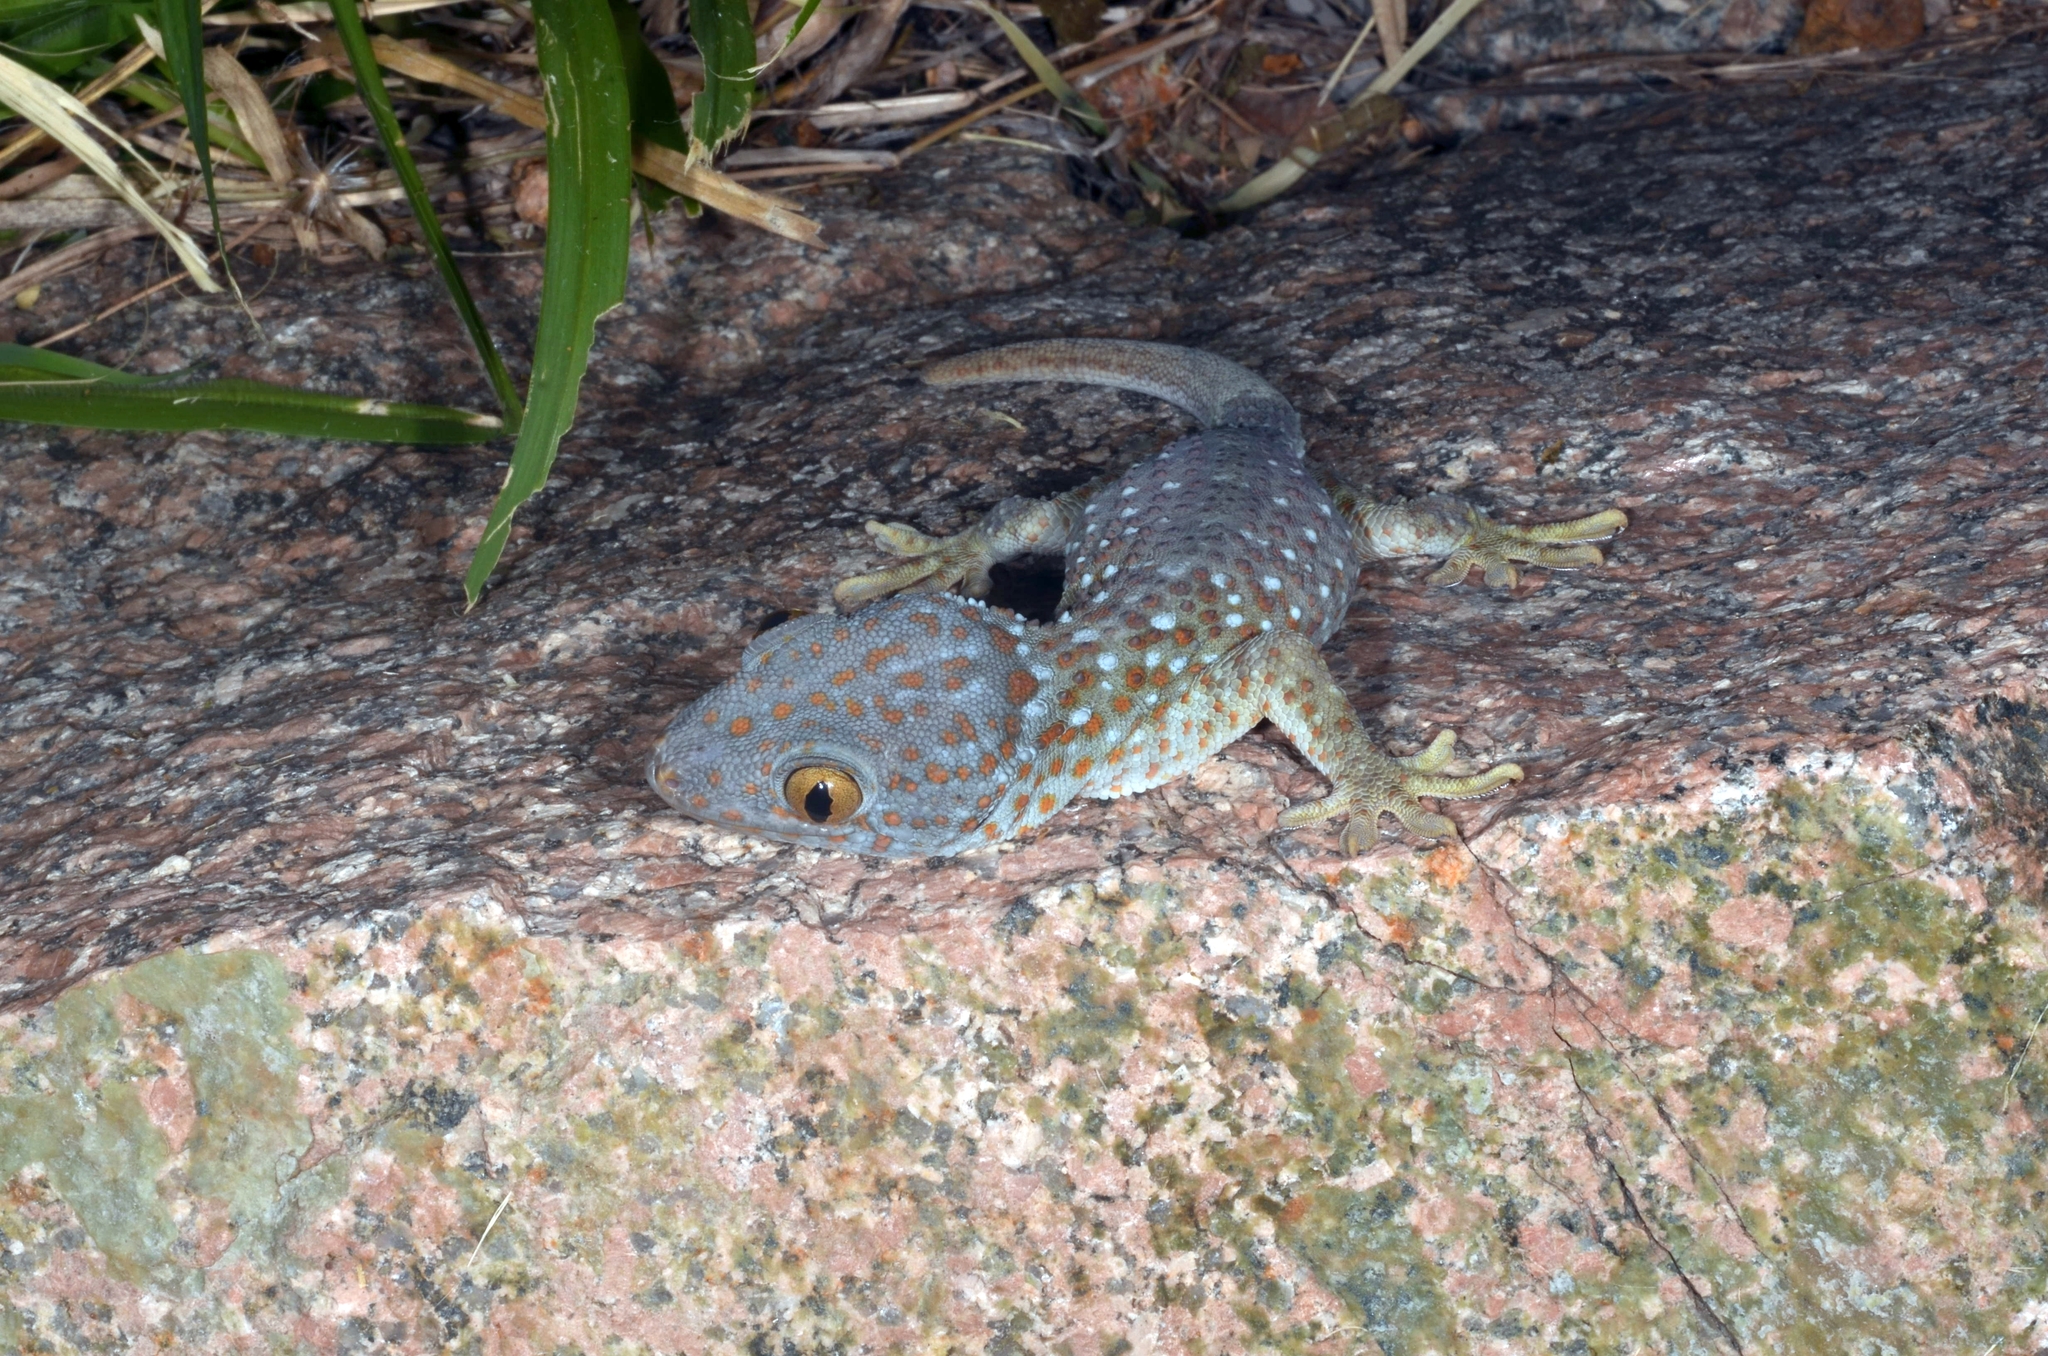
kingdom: Animalia
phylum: Chordata
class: Squamata
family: Gekkonidae
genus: Gekko
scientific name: Gekko gecko
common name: Tokay gecko
